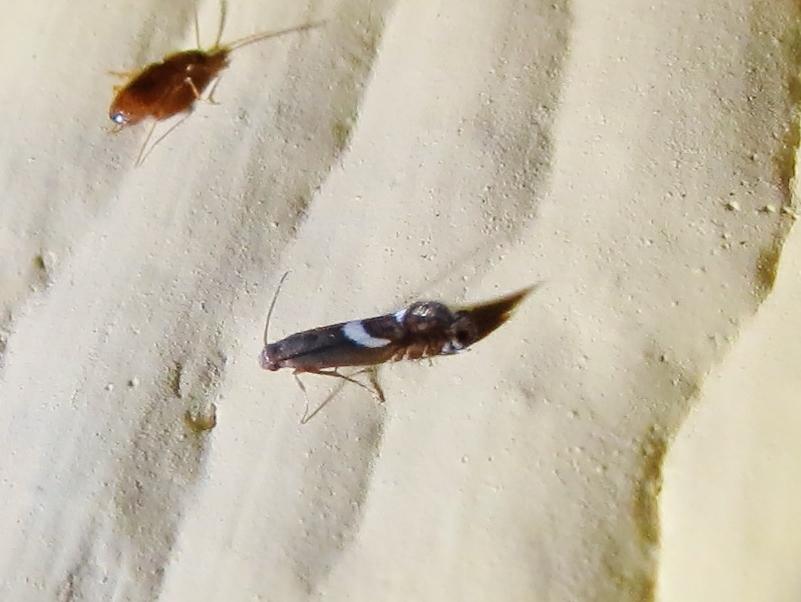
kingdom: Animalia
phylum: Arthropoda
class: Insecta
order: Lepidoptera
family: Glyphipterigidae
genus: Glyphipterix
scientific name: Glyphipterix Diploschizia impigritella
